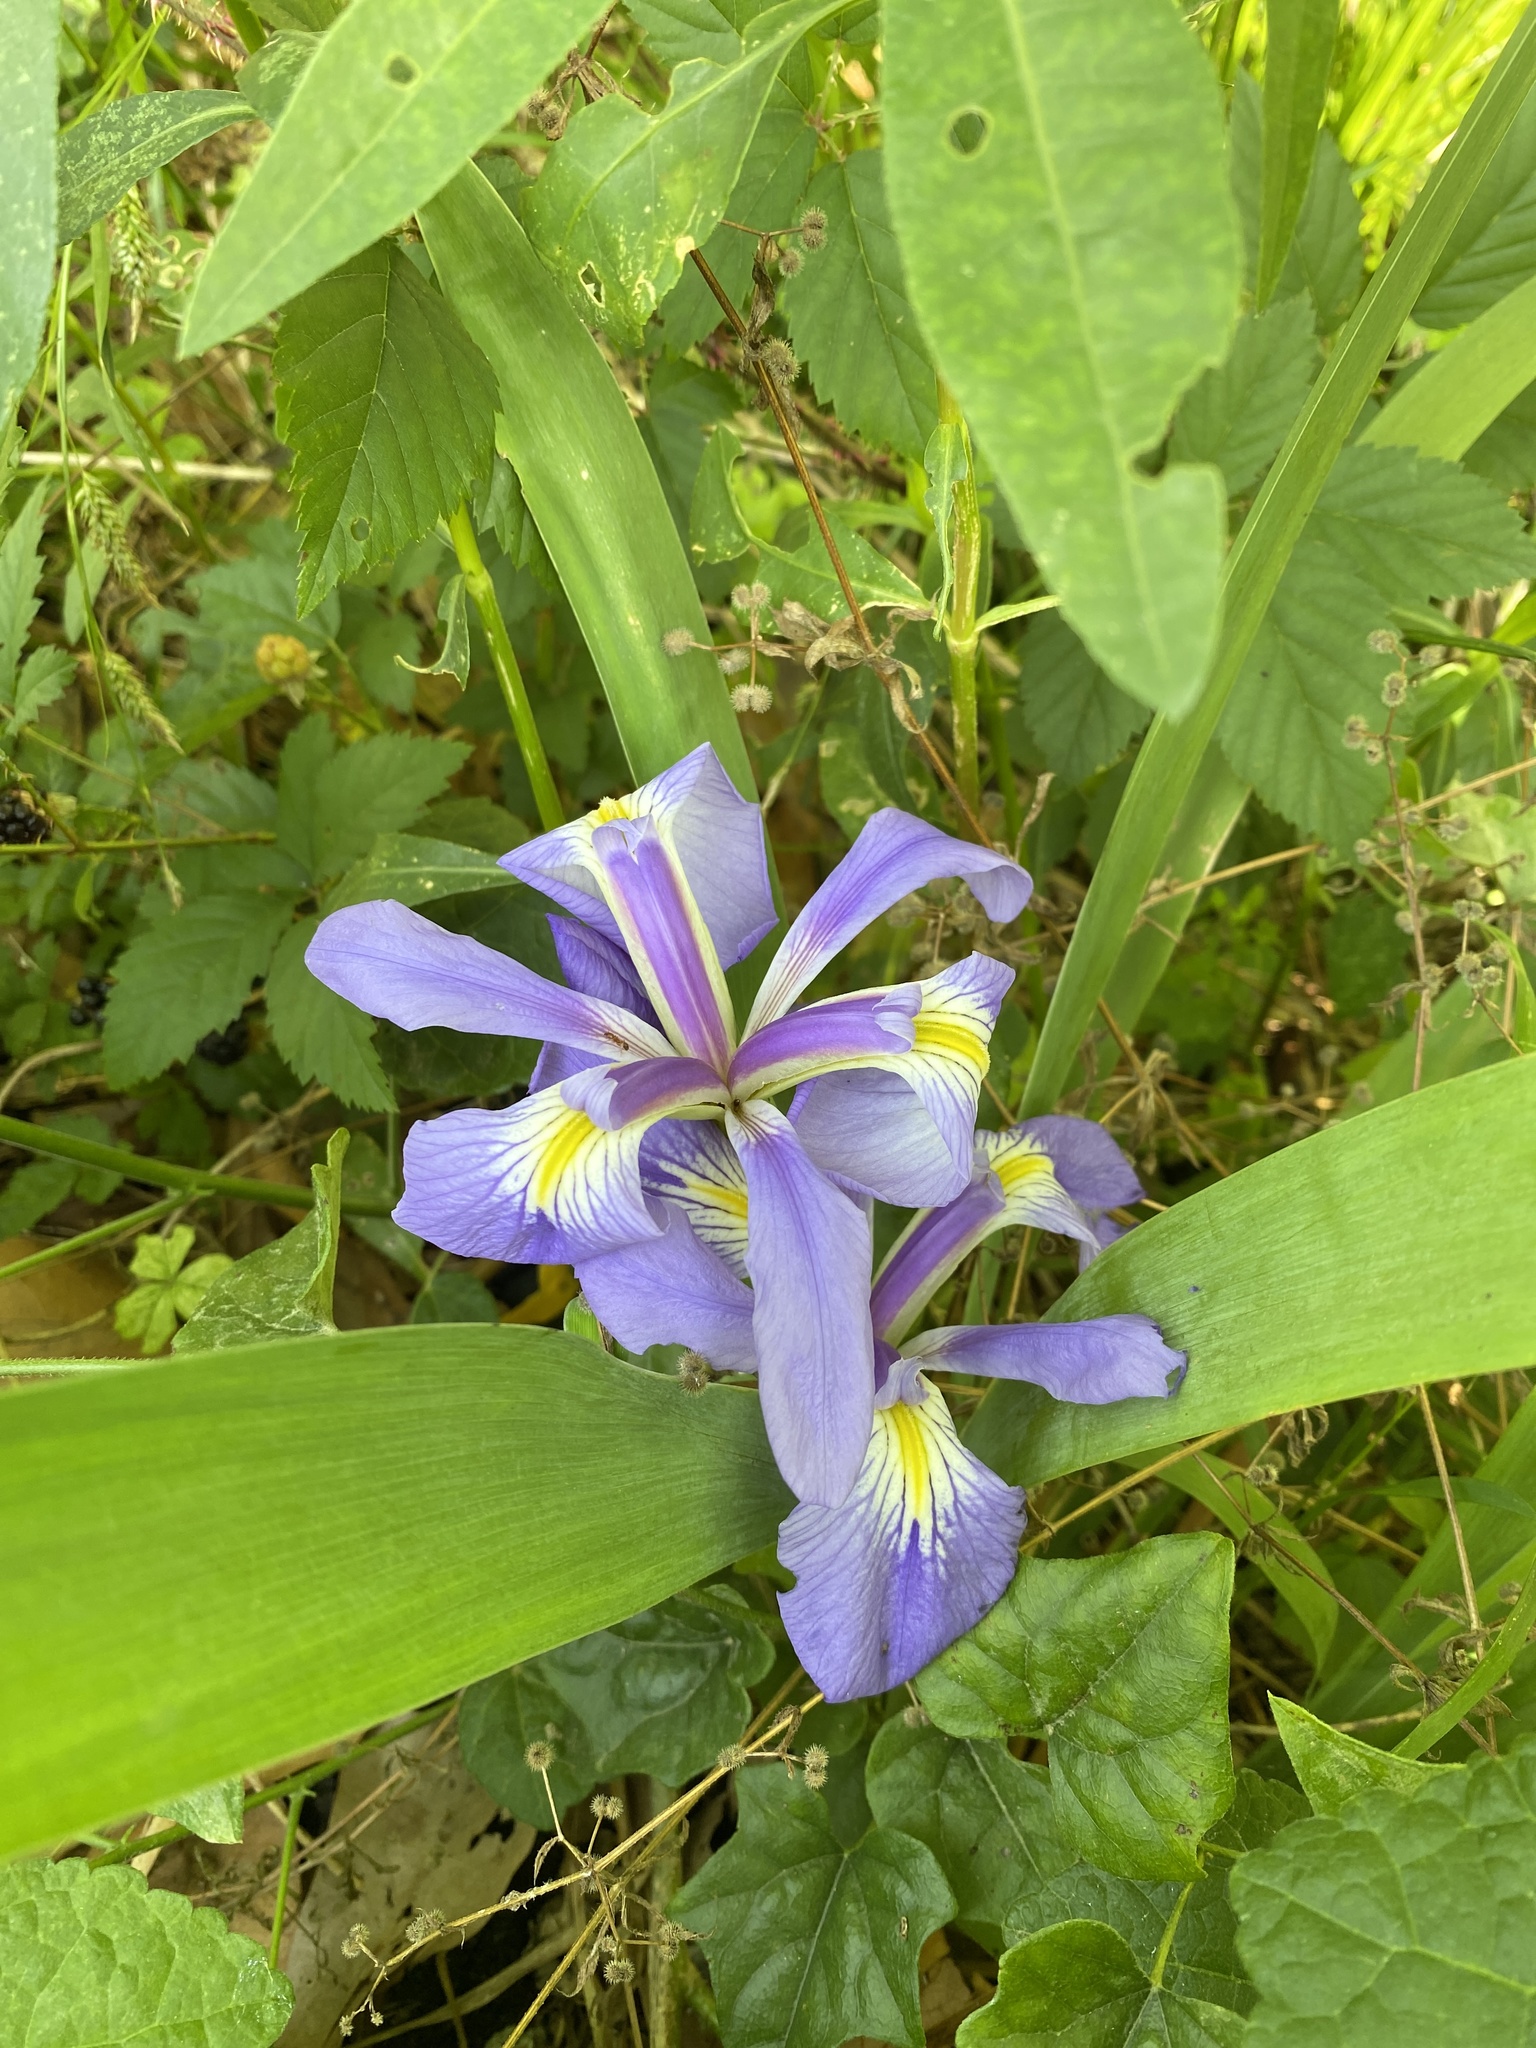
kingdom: Plantae
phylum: Tracheophyta
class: Liliopsida
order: Asparagales
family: Iridaceae
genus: Iris
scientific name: Iris brevicaulis
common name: Zigzag iris
